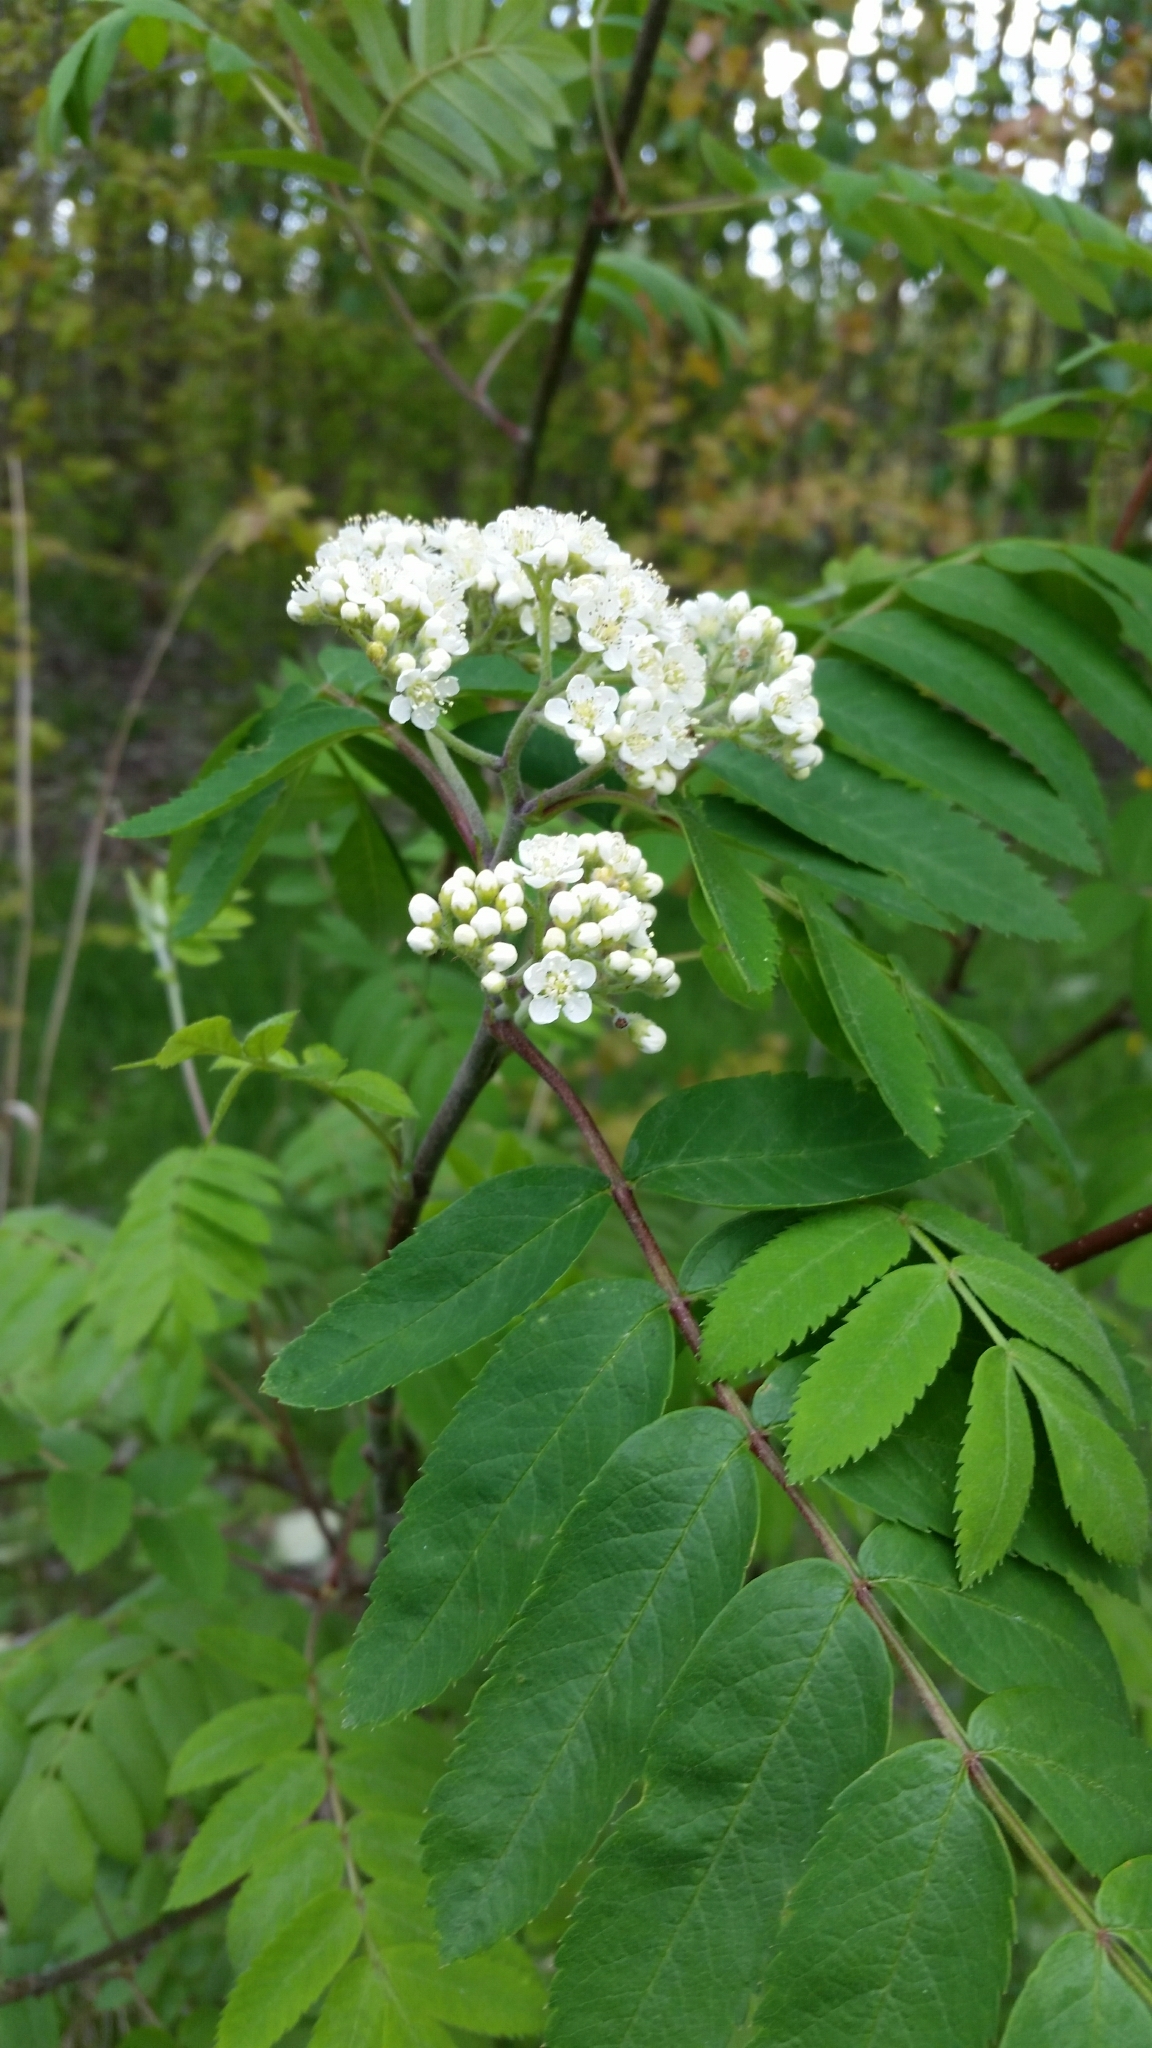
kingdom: Plantae
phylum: Tracheophyta
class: Magnoliopsida
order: Rosales
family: Rosaceae
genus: Sorbus
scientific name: Sorbus aucuparia
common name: Rowan
